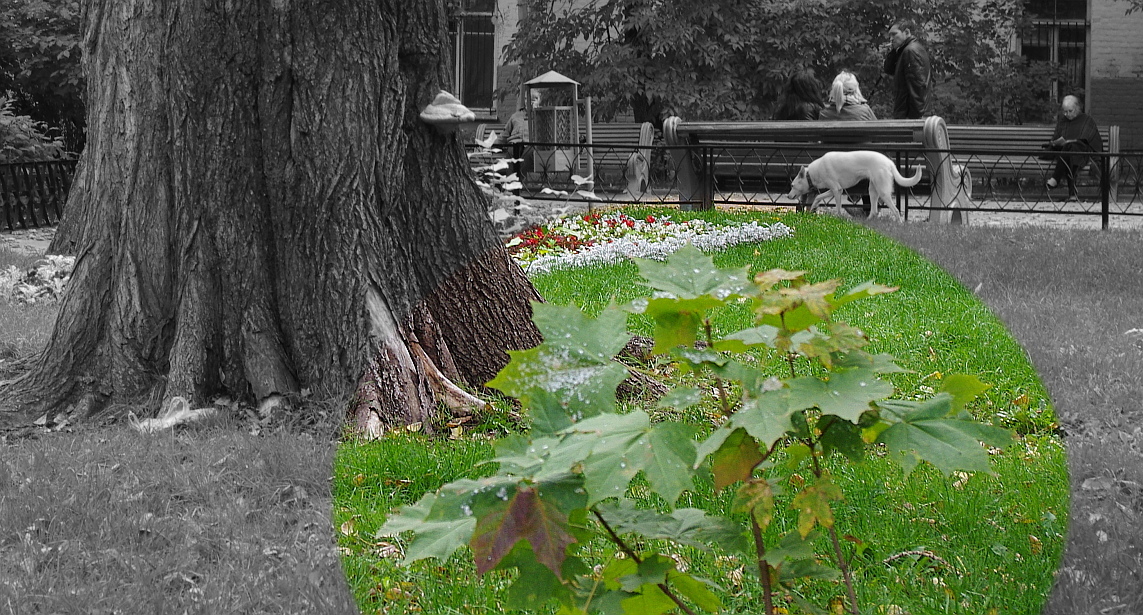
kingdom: Plantae
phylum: Tracheophyta
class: Magnoliopsida
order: Sapindales
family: Sapindaceae
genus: Acer
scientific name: Acer platanoides
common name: Norway maple
